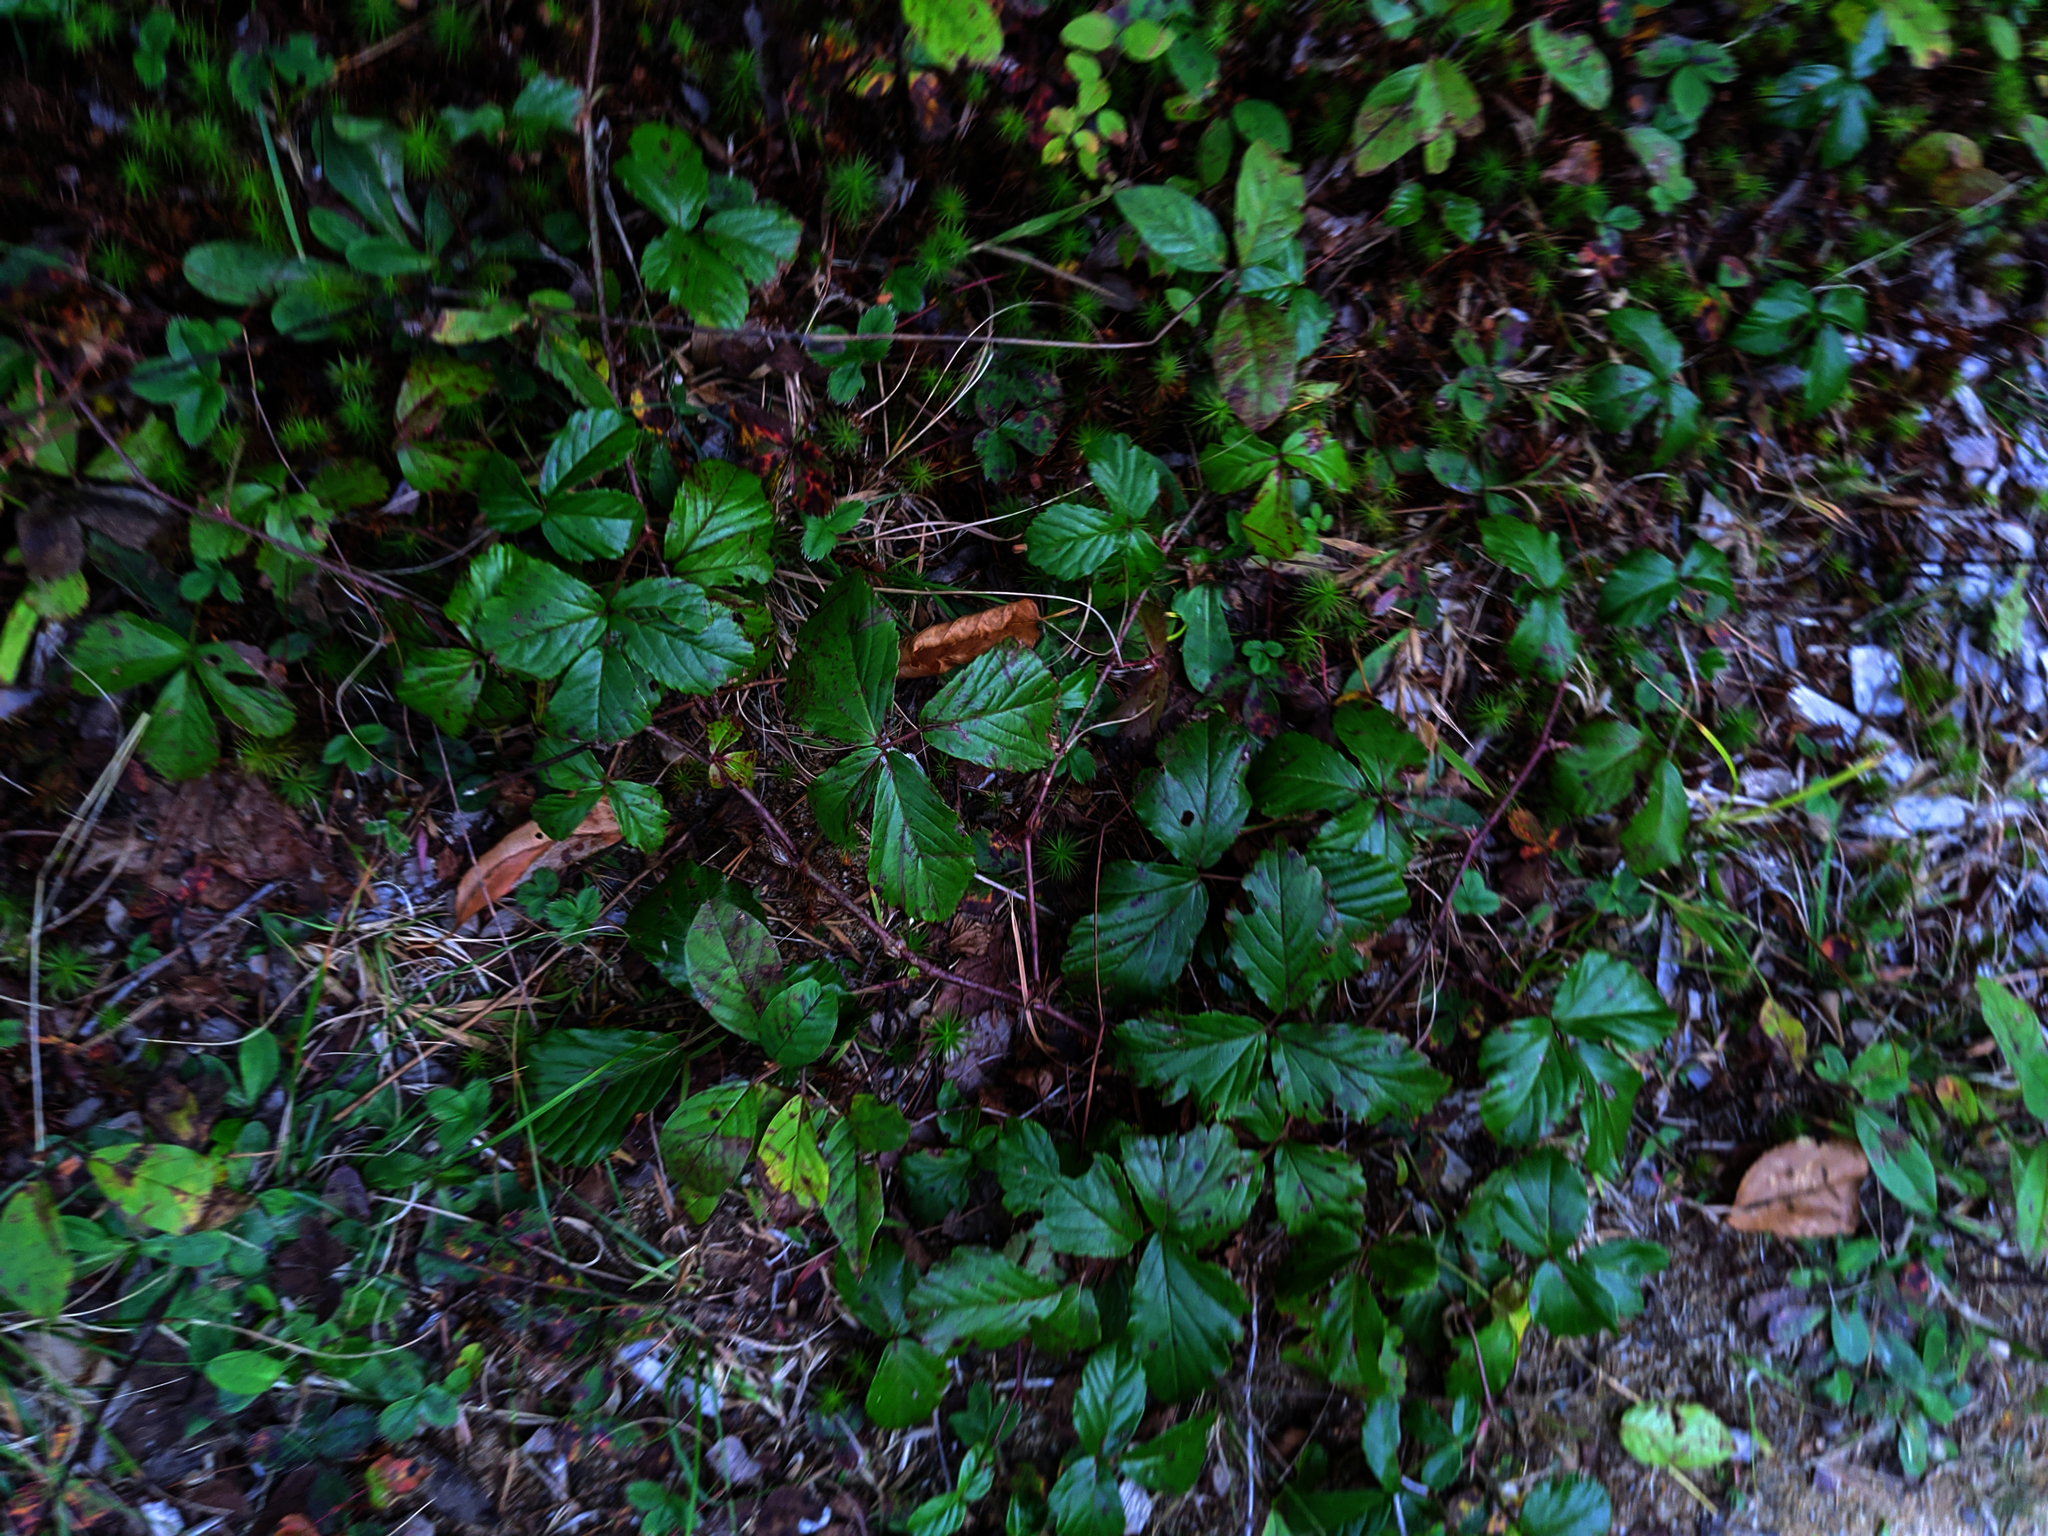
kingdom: Plantae
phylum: Tracheophyta
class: Magnoliopsida
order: Rosales
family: Rosaceae
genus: Rubus
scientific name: Rubus hispidus
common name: Running blackberry
